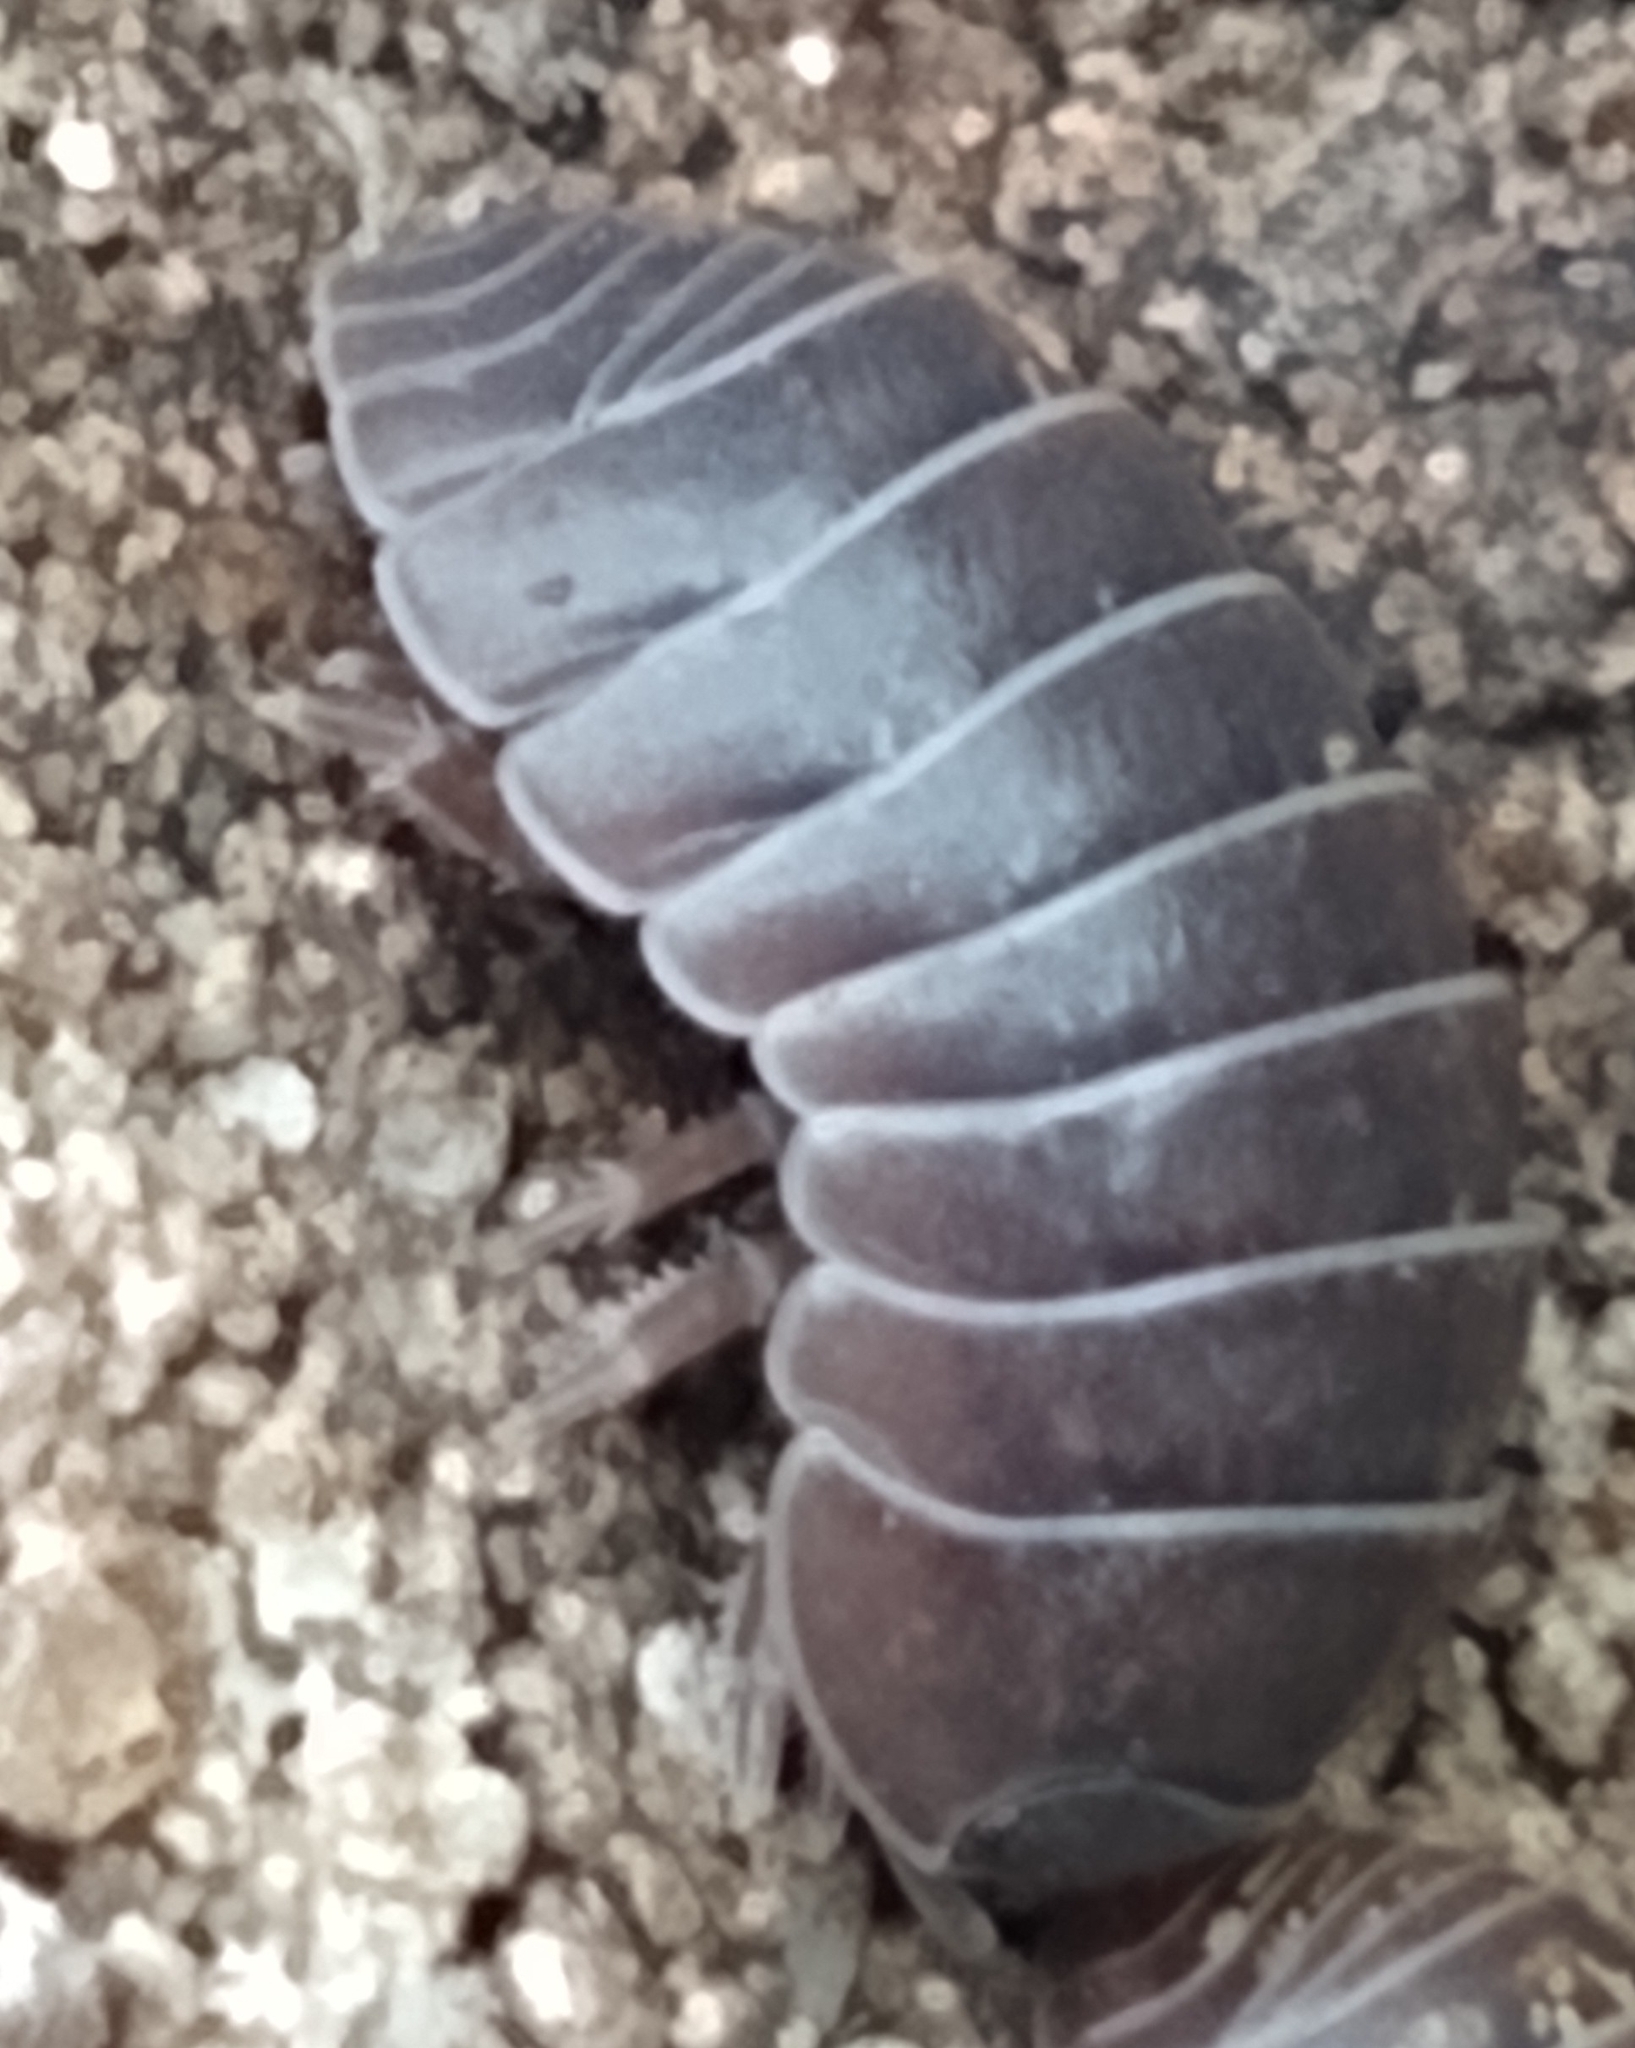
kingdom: Animalia
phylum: Arthropoda
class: Malacostraca
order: Isopoda
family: Armadillidiidae
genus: Armadillidium
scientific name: Armadillidium vulgare
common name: Common pill woodlouse
